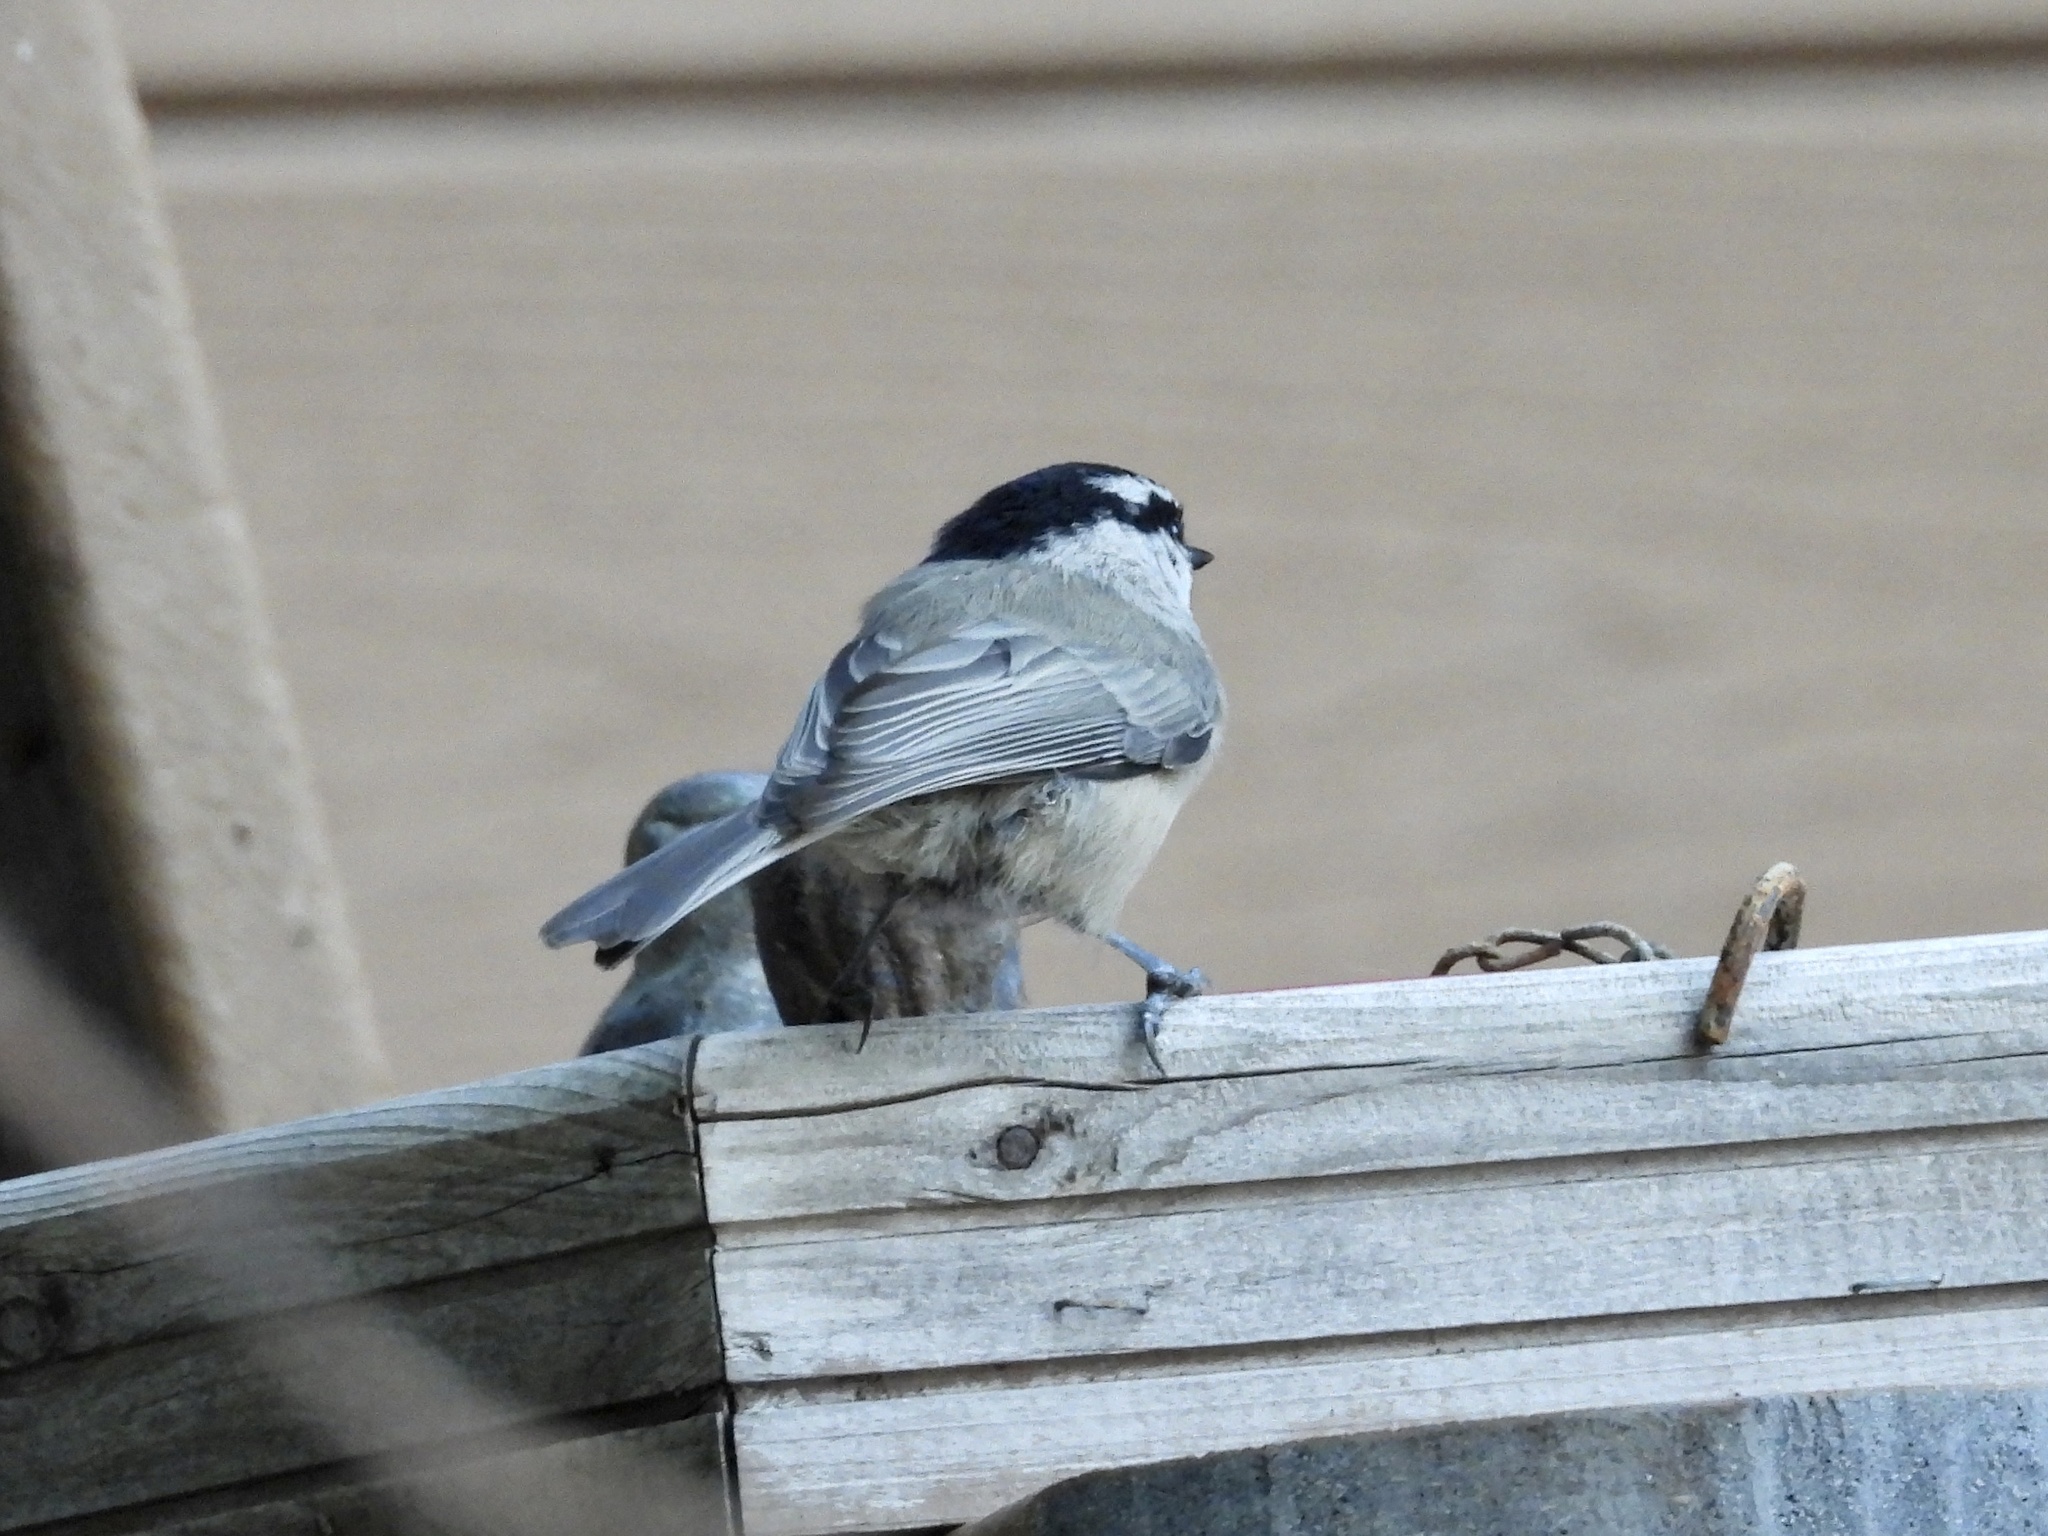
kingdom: Animalia
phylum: Chordata
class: Aves
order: Passeriformes
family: Paridae
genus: Poecile
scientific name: Poecile gambeli
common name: Mountain chickadee
